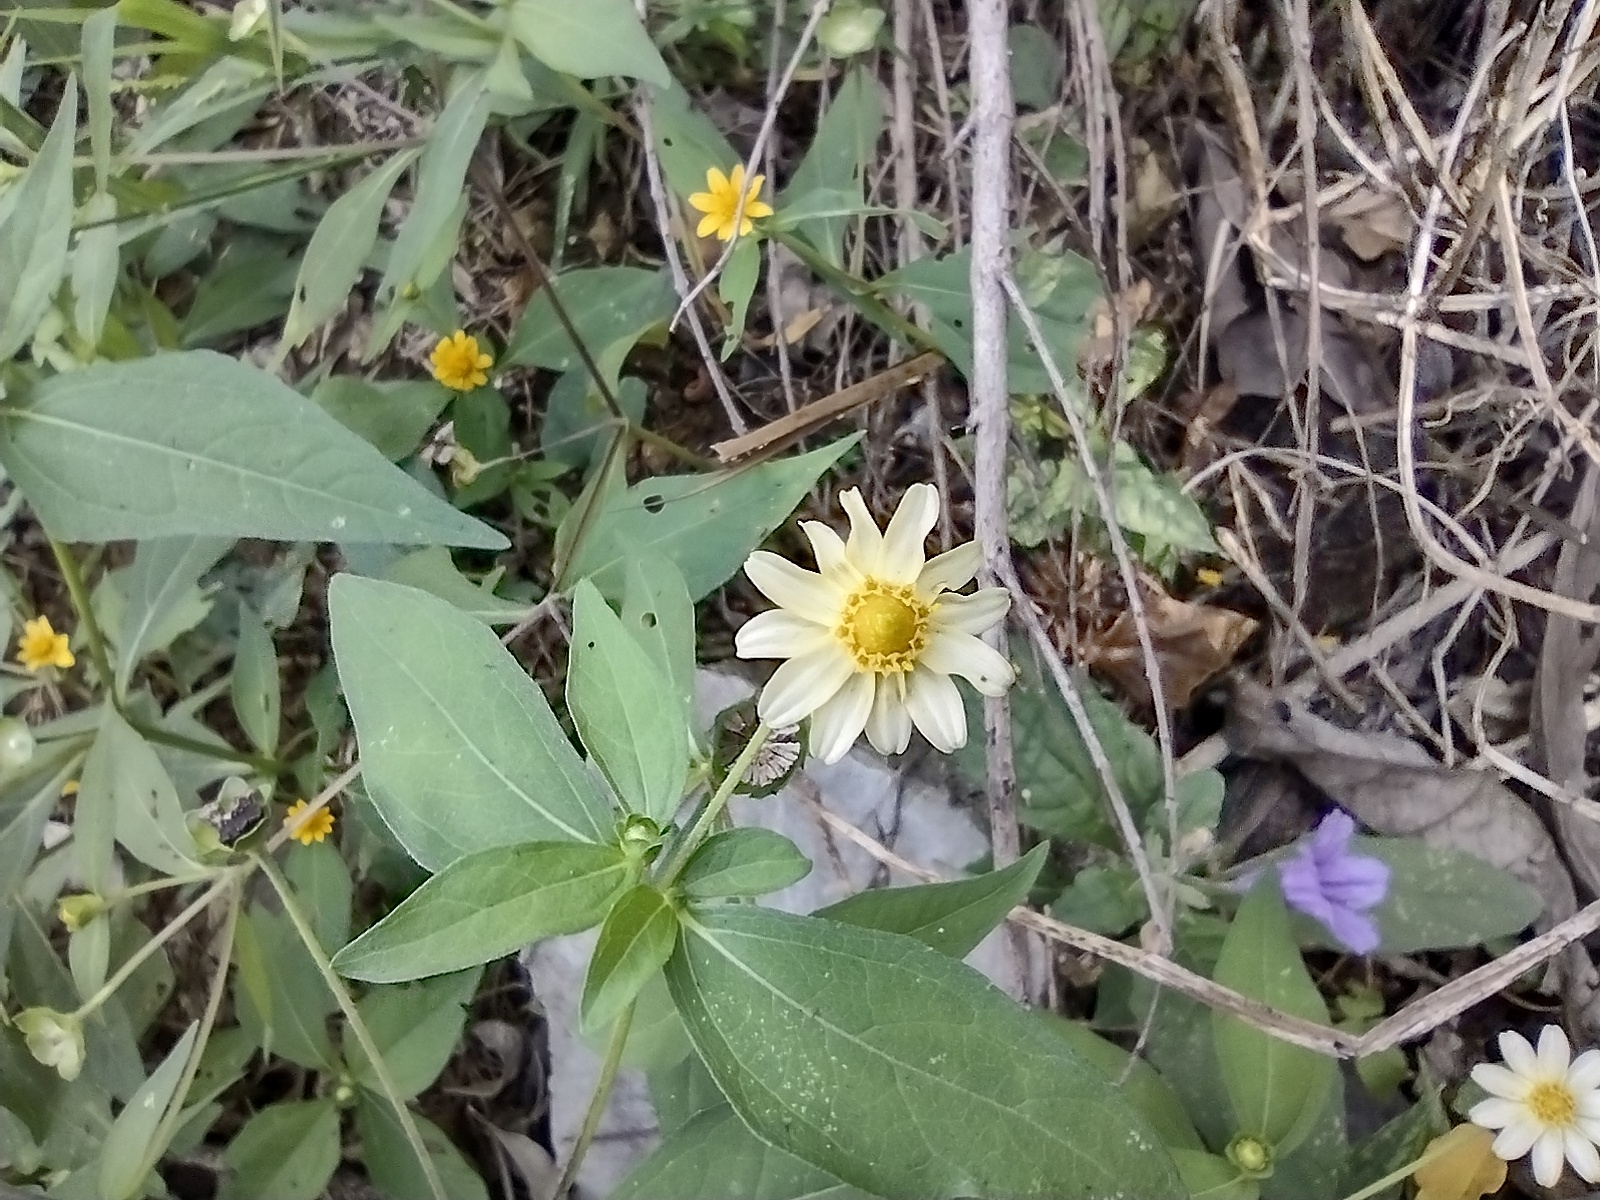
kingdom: Plantae
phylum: Tracheophyta
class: Magnoliopsida
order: Asterales
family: Asteraceae
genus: Melampodium
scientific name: Melampodium divaricatum
